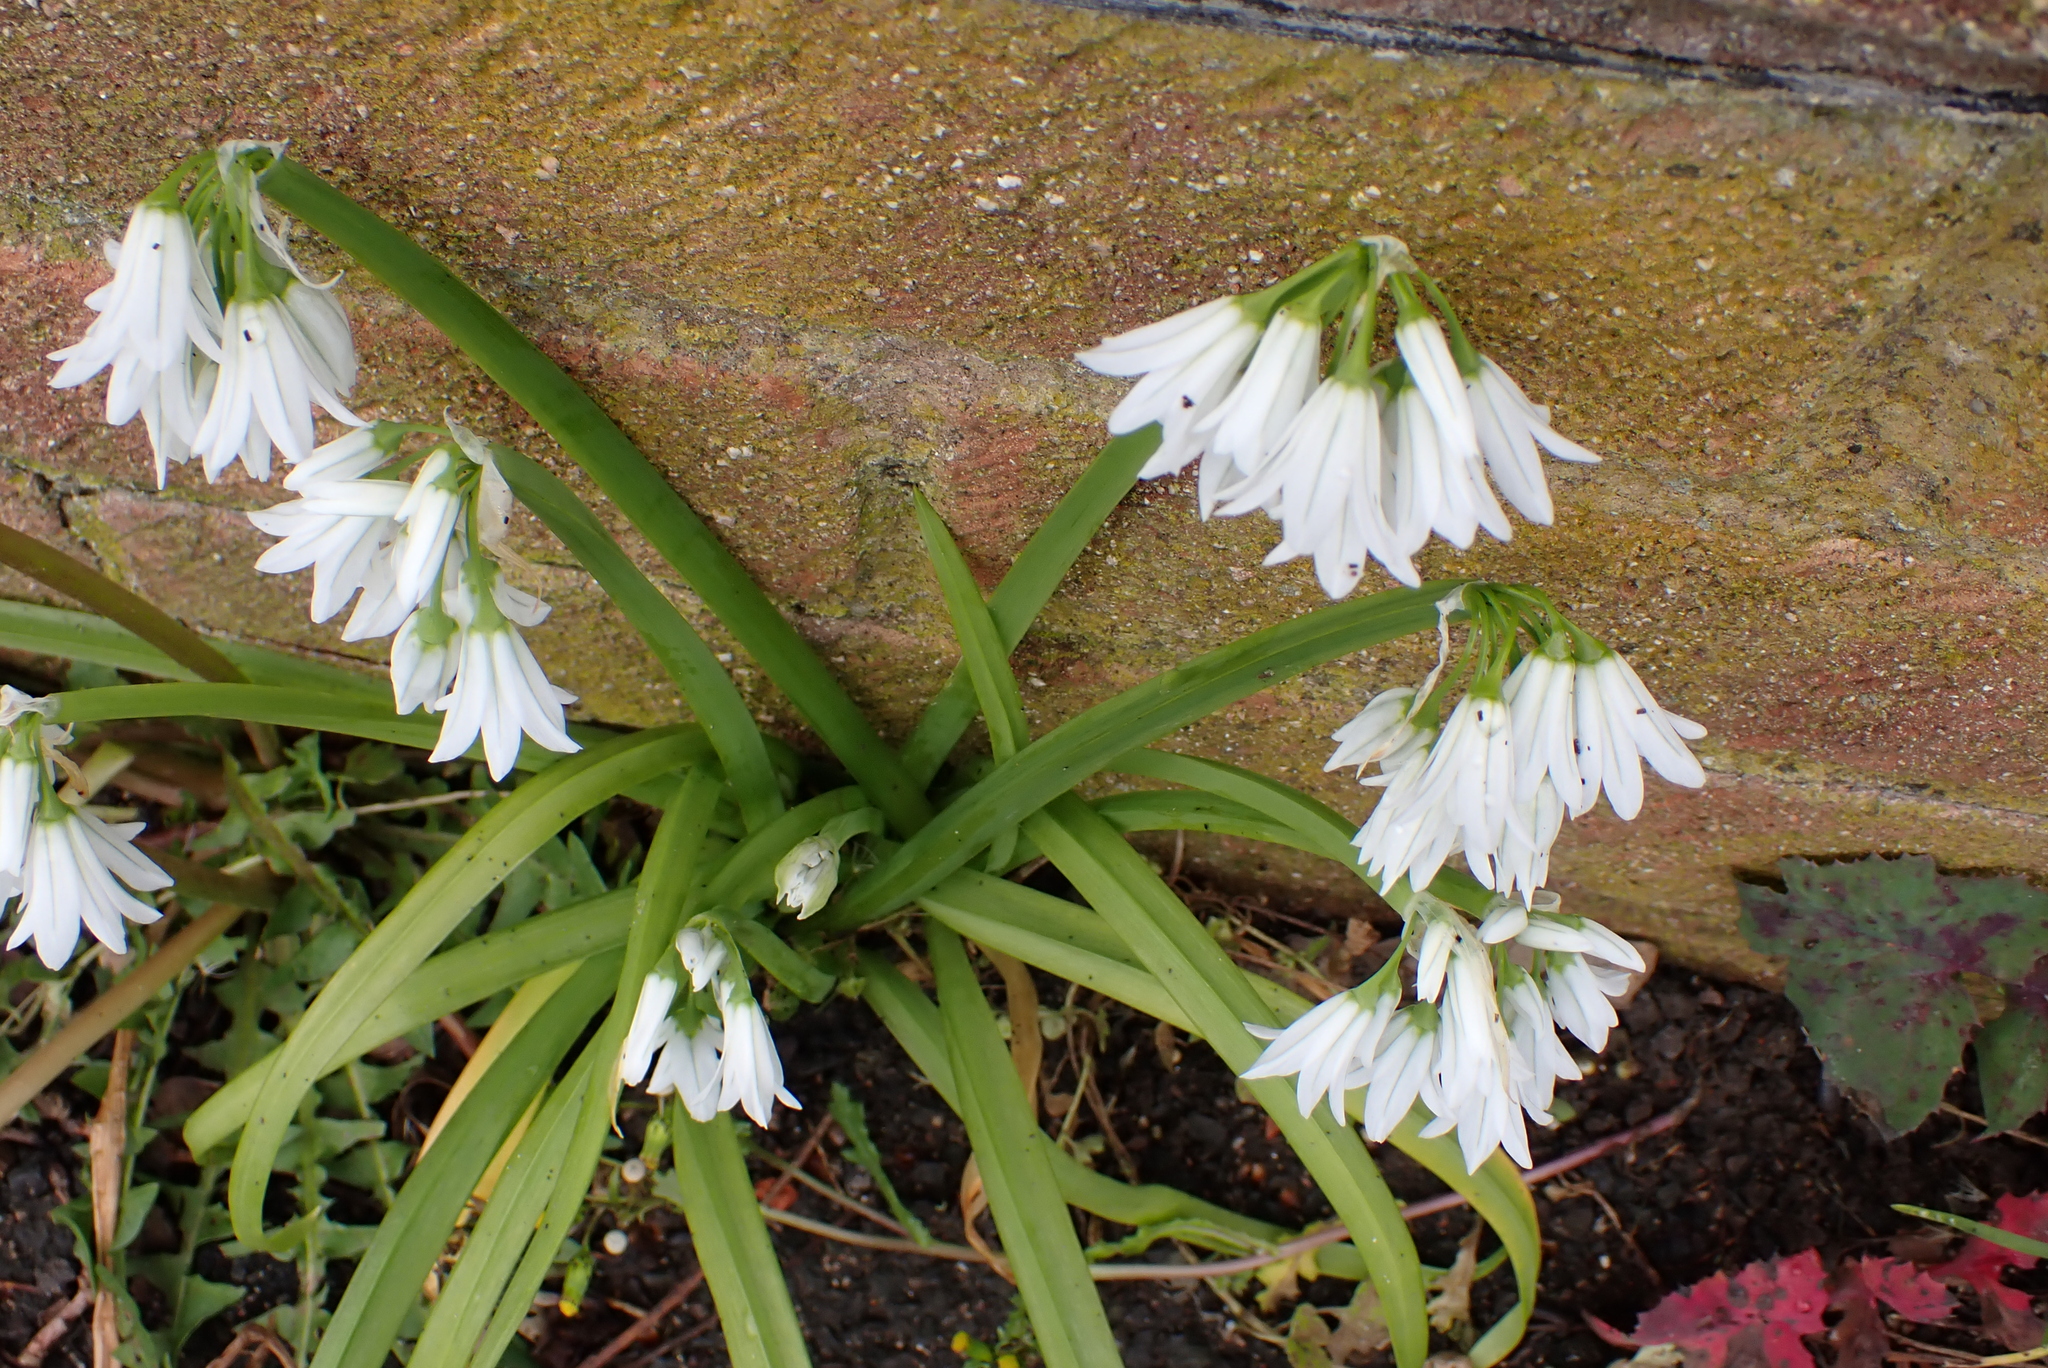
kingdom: Plantae
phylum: Tracheophyta
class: Liliopsida
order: Asparagales
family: Amaryllidaceae
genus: Allium
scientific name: Allium triquetrum
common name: Three-cornered garlic
